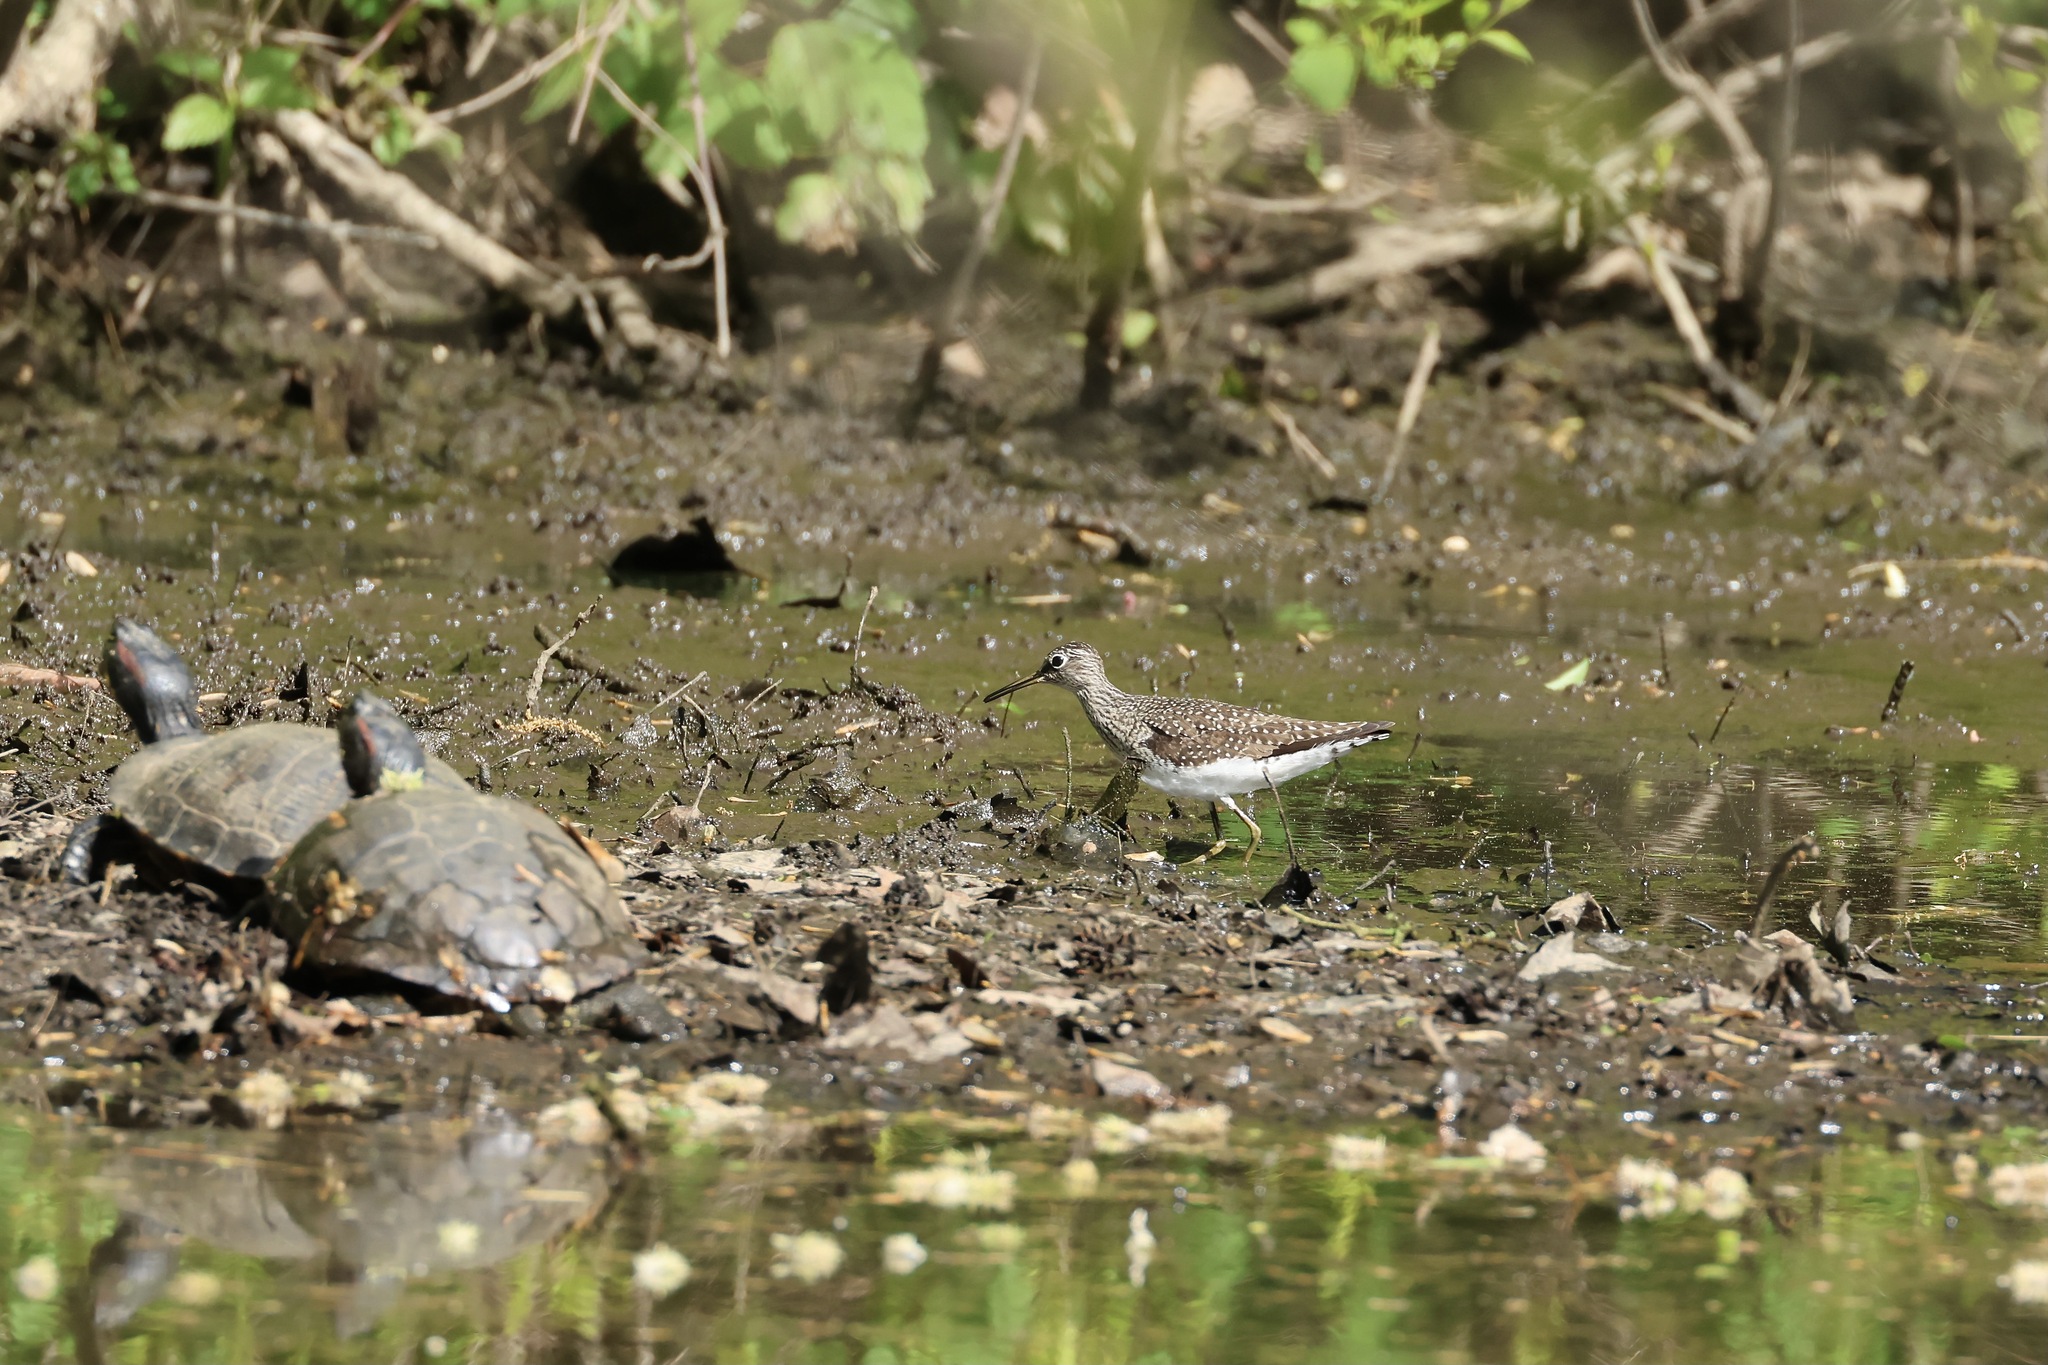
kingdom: Animalia
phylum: Chordata
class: Aves
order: Charadriiformes
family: Scolopacidae
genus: Tringa
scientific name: Tringa solitaria
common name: Solitary sandpiper
